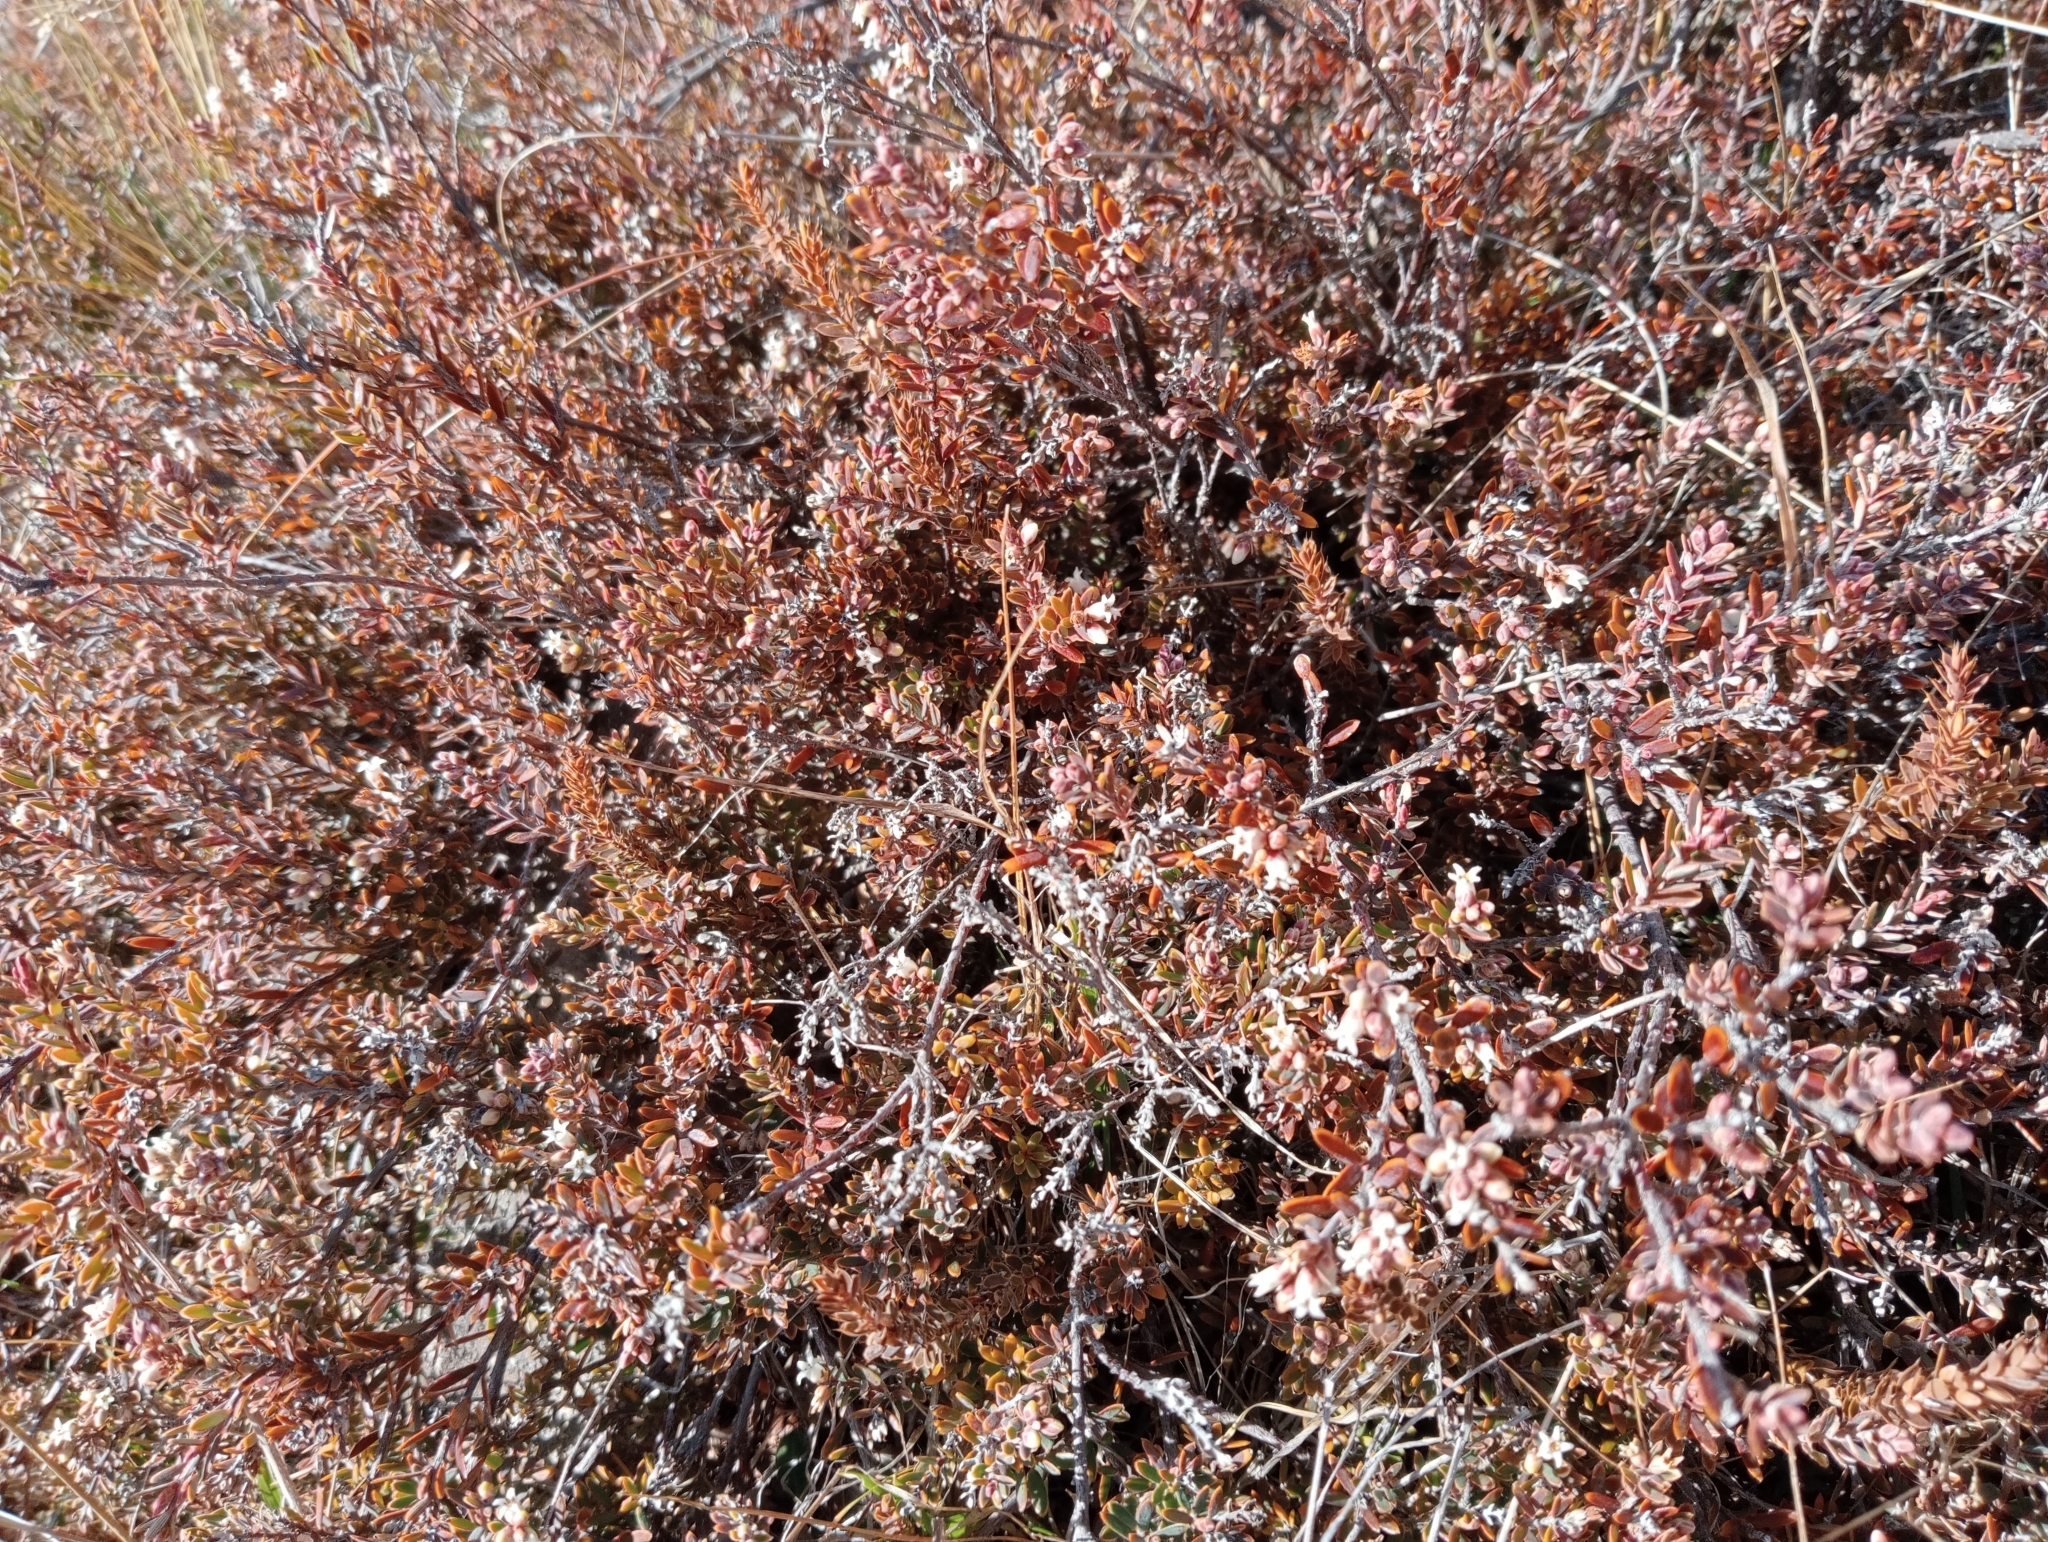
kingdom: Plantae
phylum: Tracheophyta
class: Magnoliopsida
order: Ericales
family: Ericaceae
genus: Acrothamnus
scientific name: Acrothamnus colensoi
